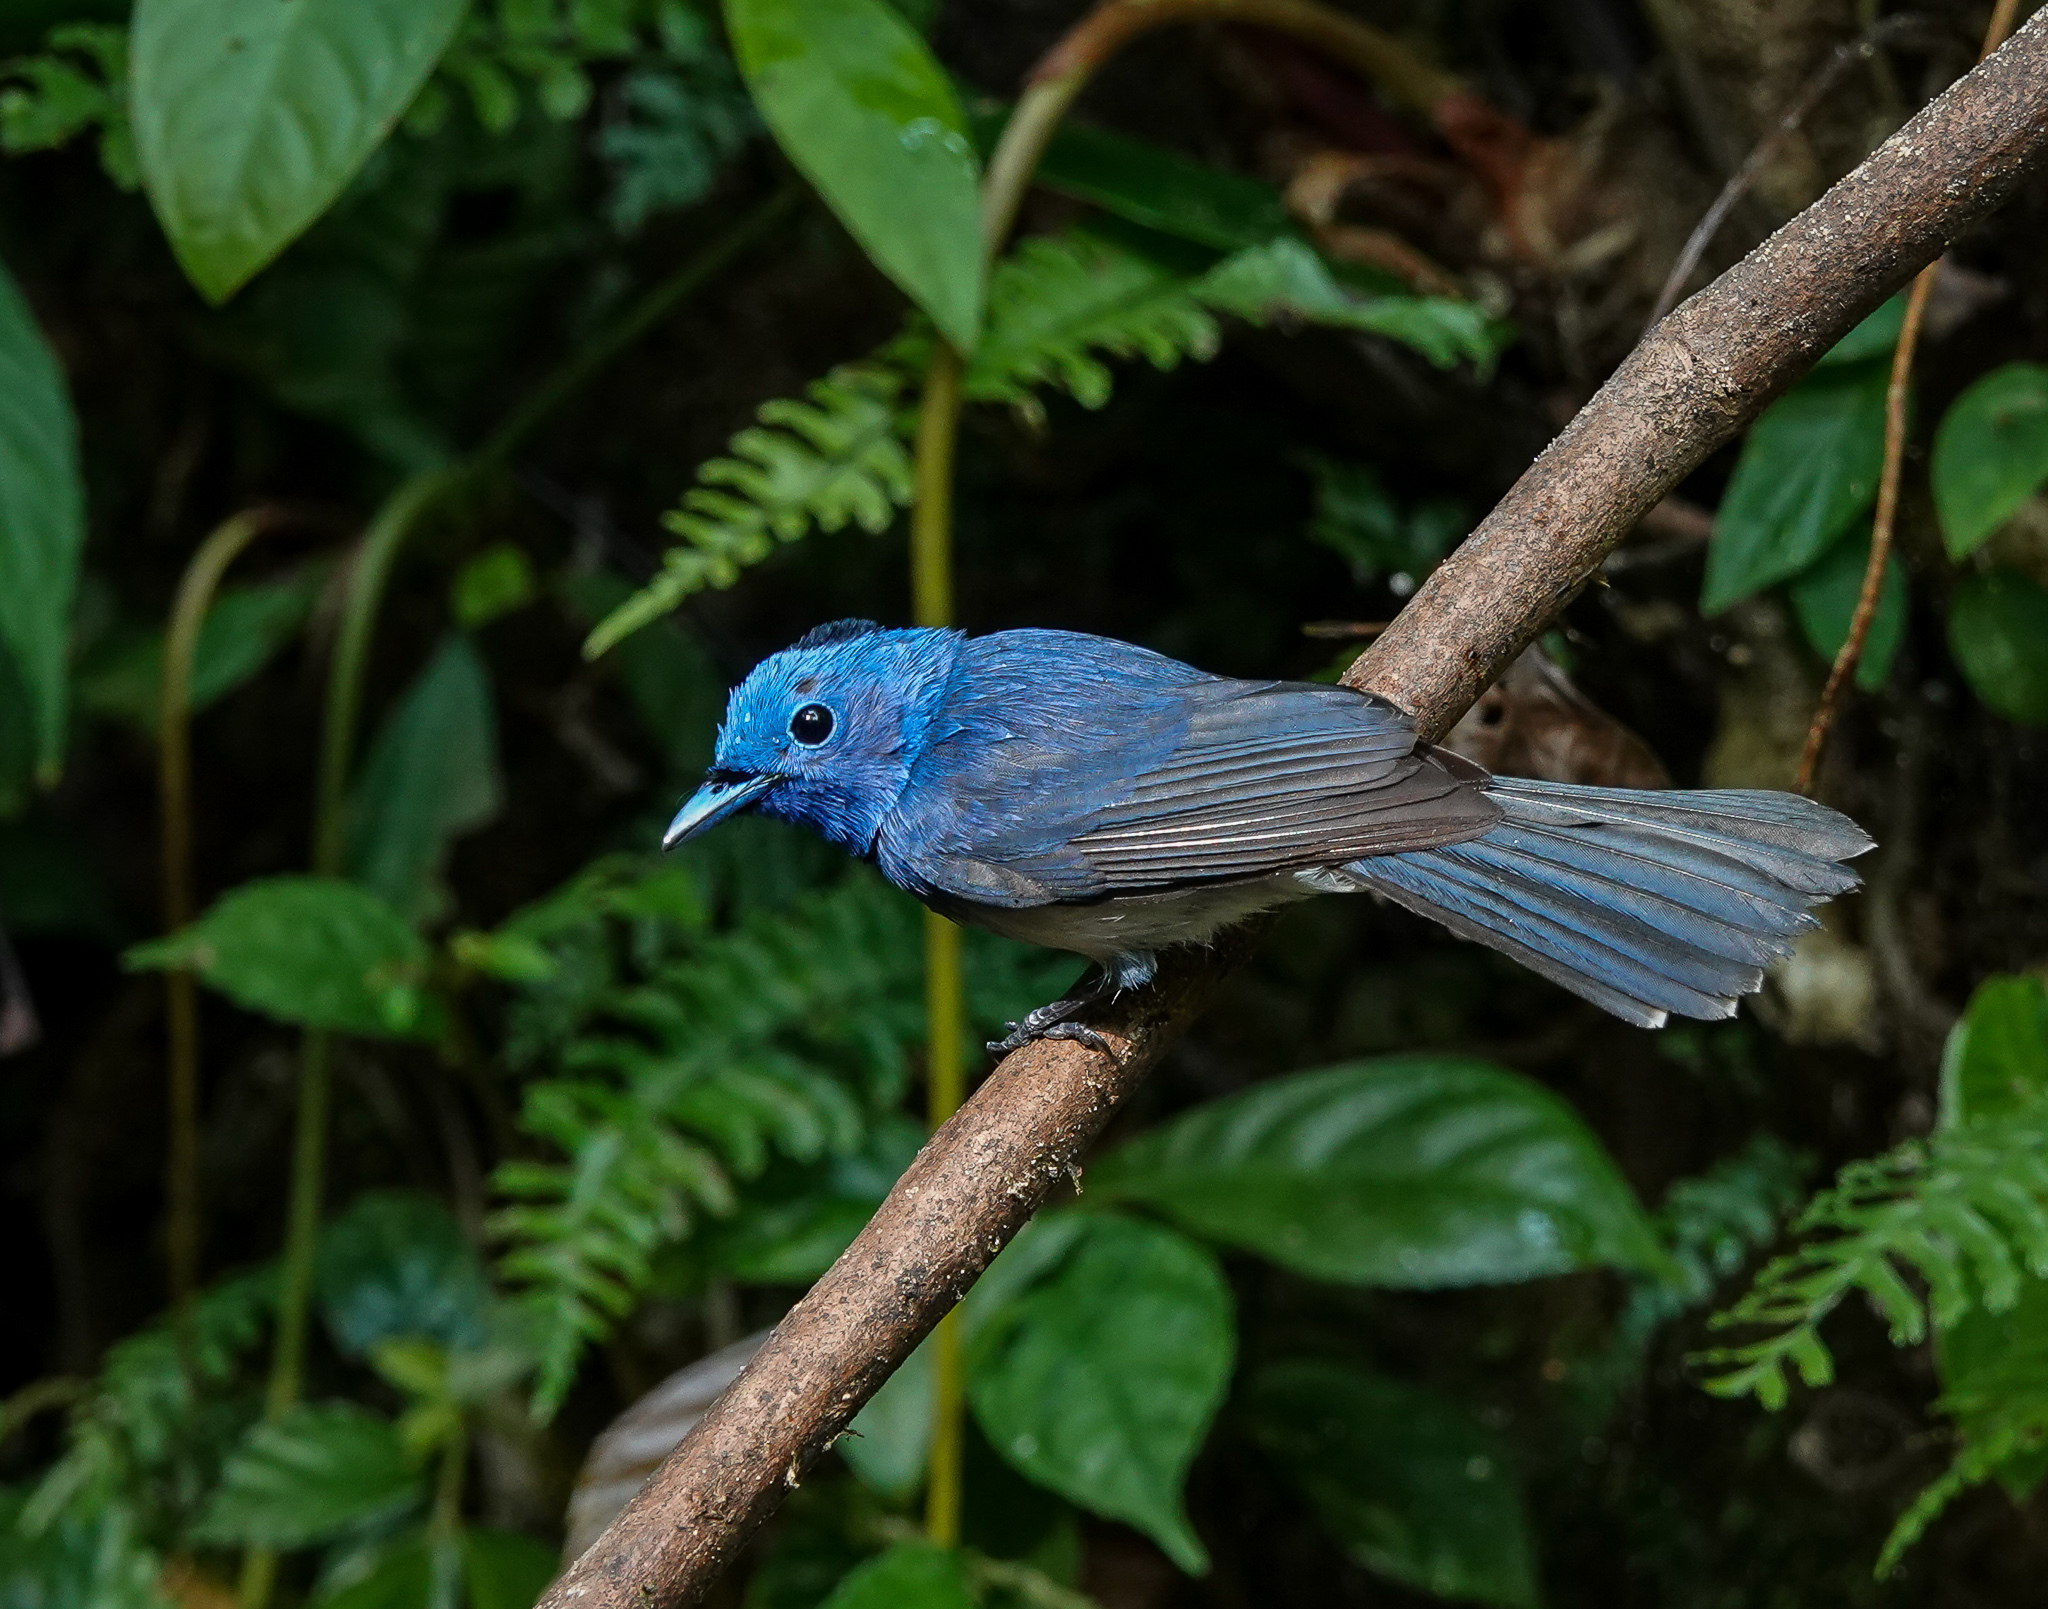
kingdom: Animalia
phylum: Chordata
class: Aves
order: Passeriformes
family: Monarchidae
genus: Hypothymis
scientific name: Hypothymis azurea
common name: Black-naped monarch
